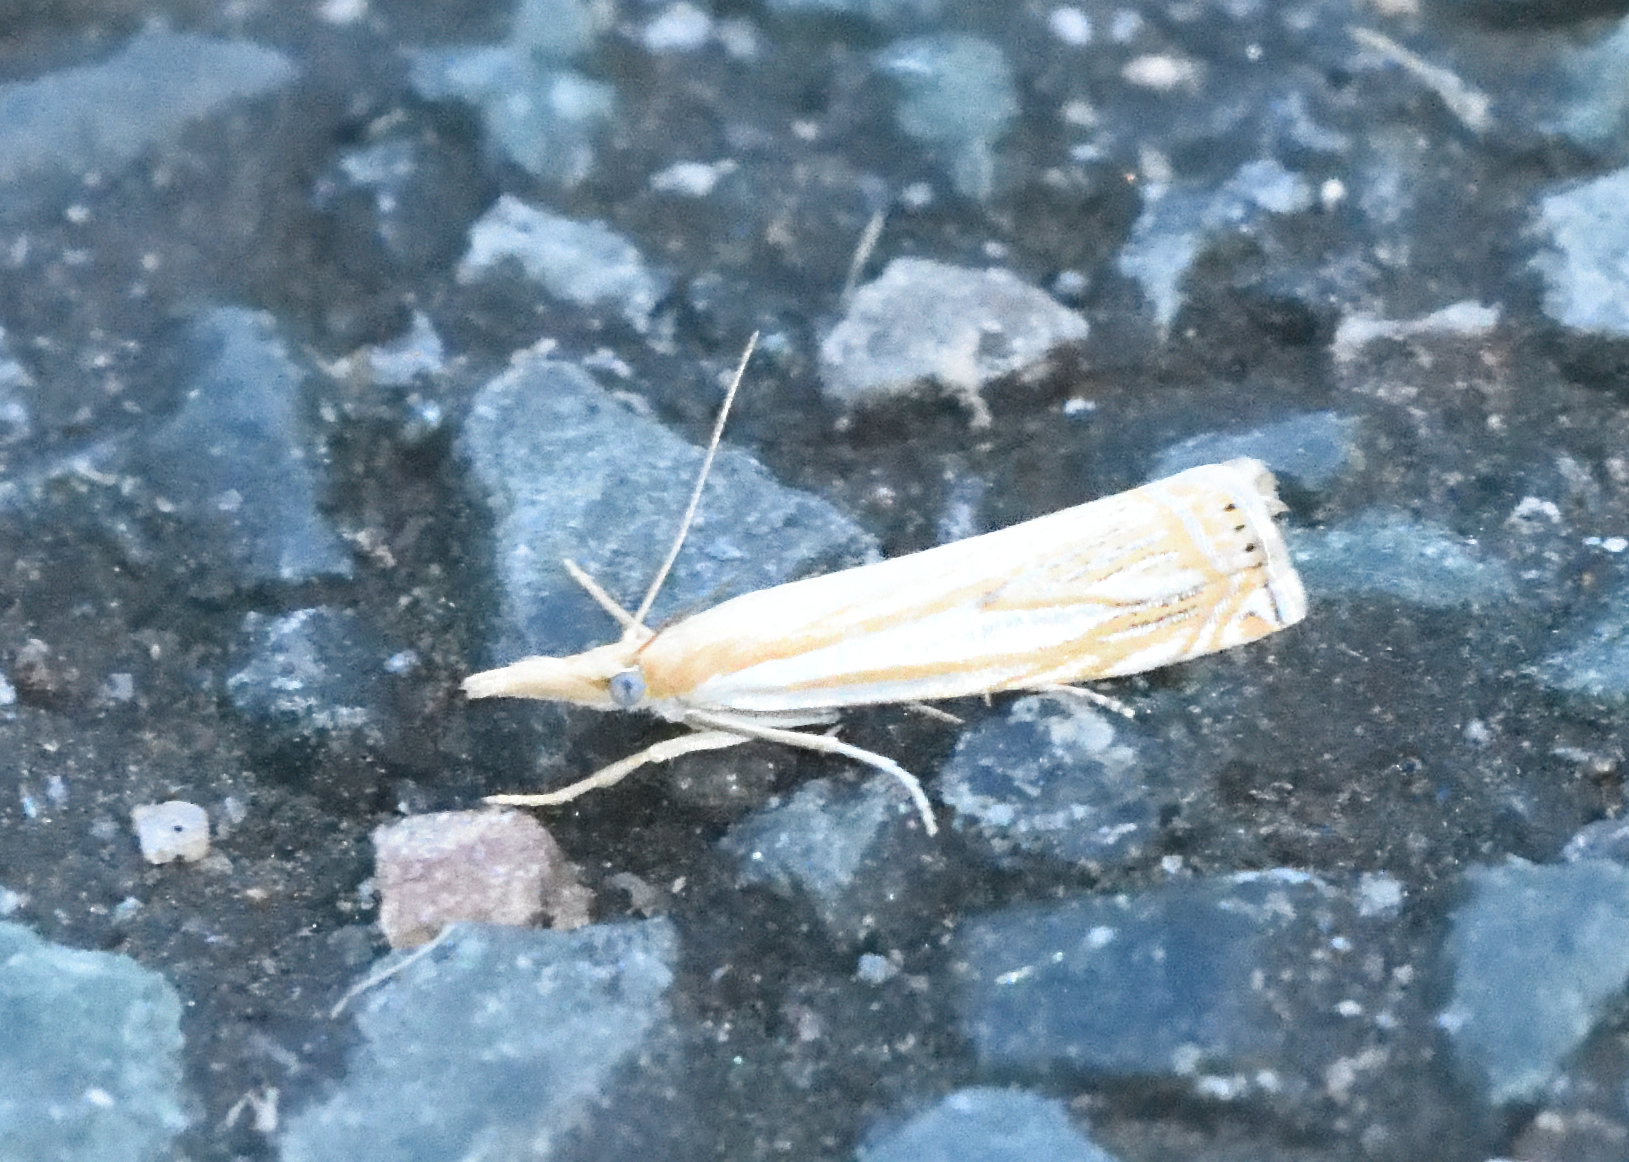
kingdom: Animalia
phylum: Arthropoda
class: Insecta
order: Lepidoptera
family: Crambidae
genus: Crambus
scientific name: Crambus agitatellus
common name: Double-banded grass-veneer
